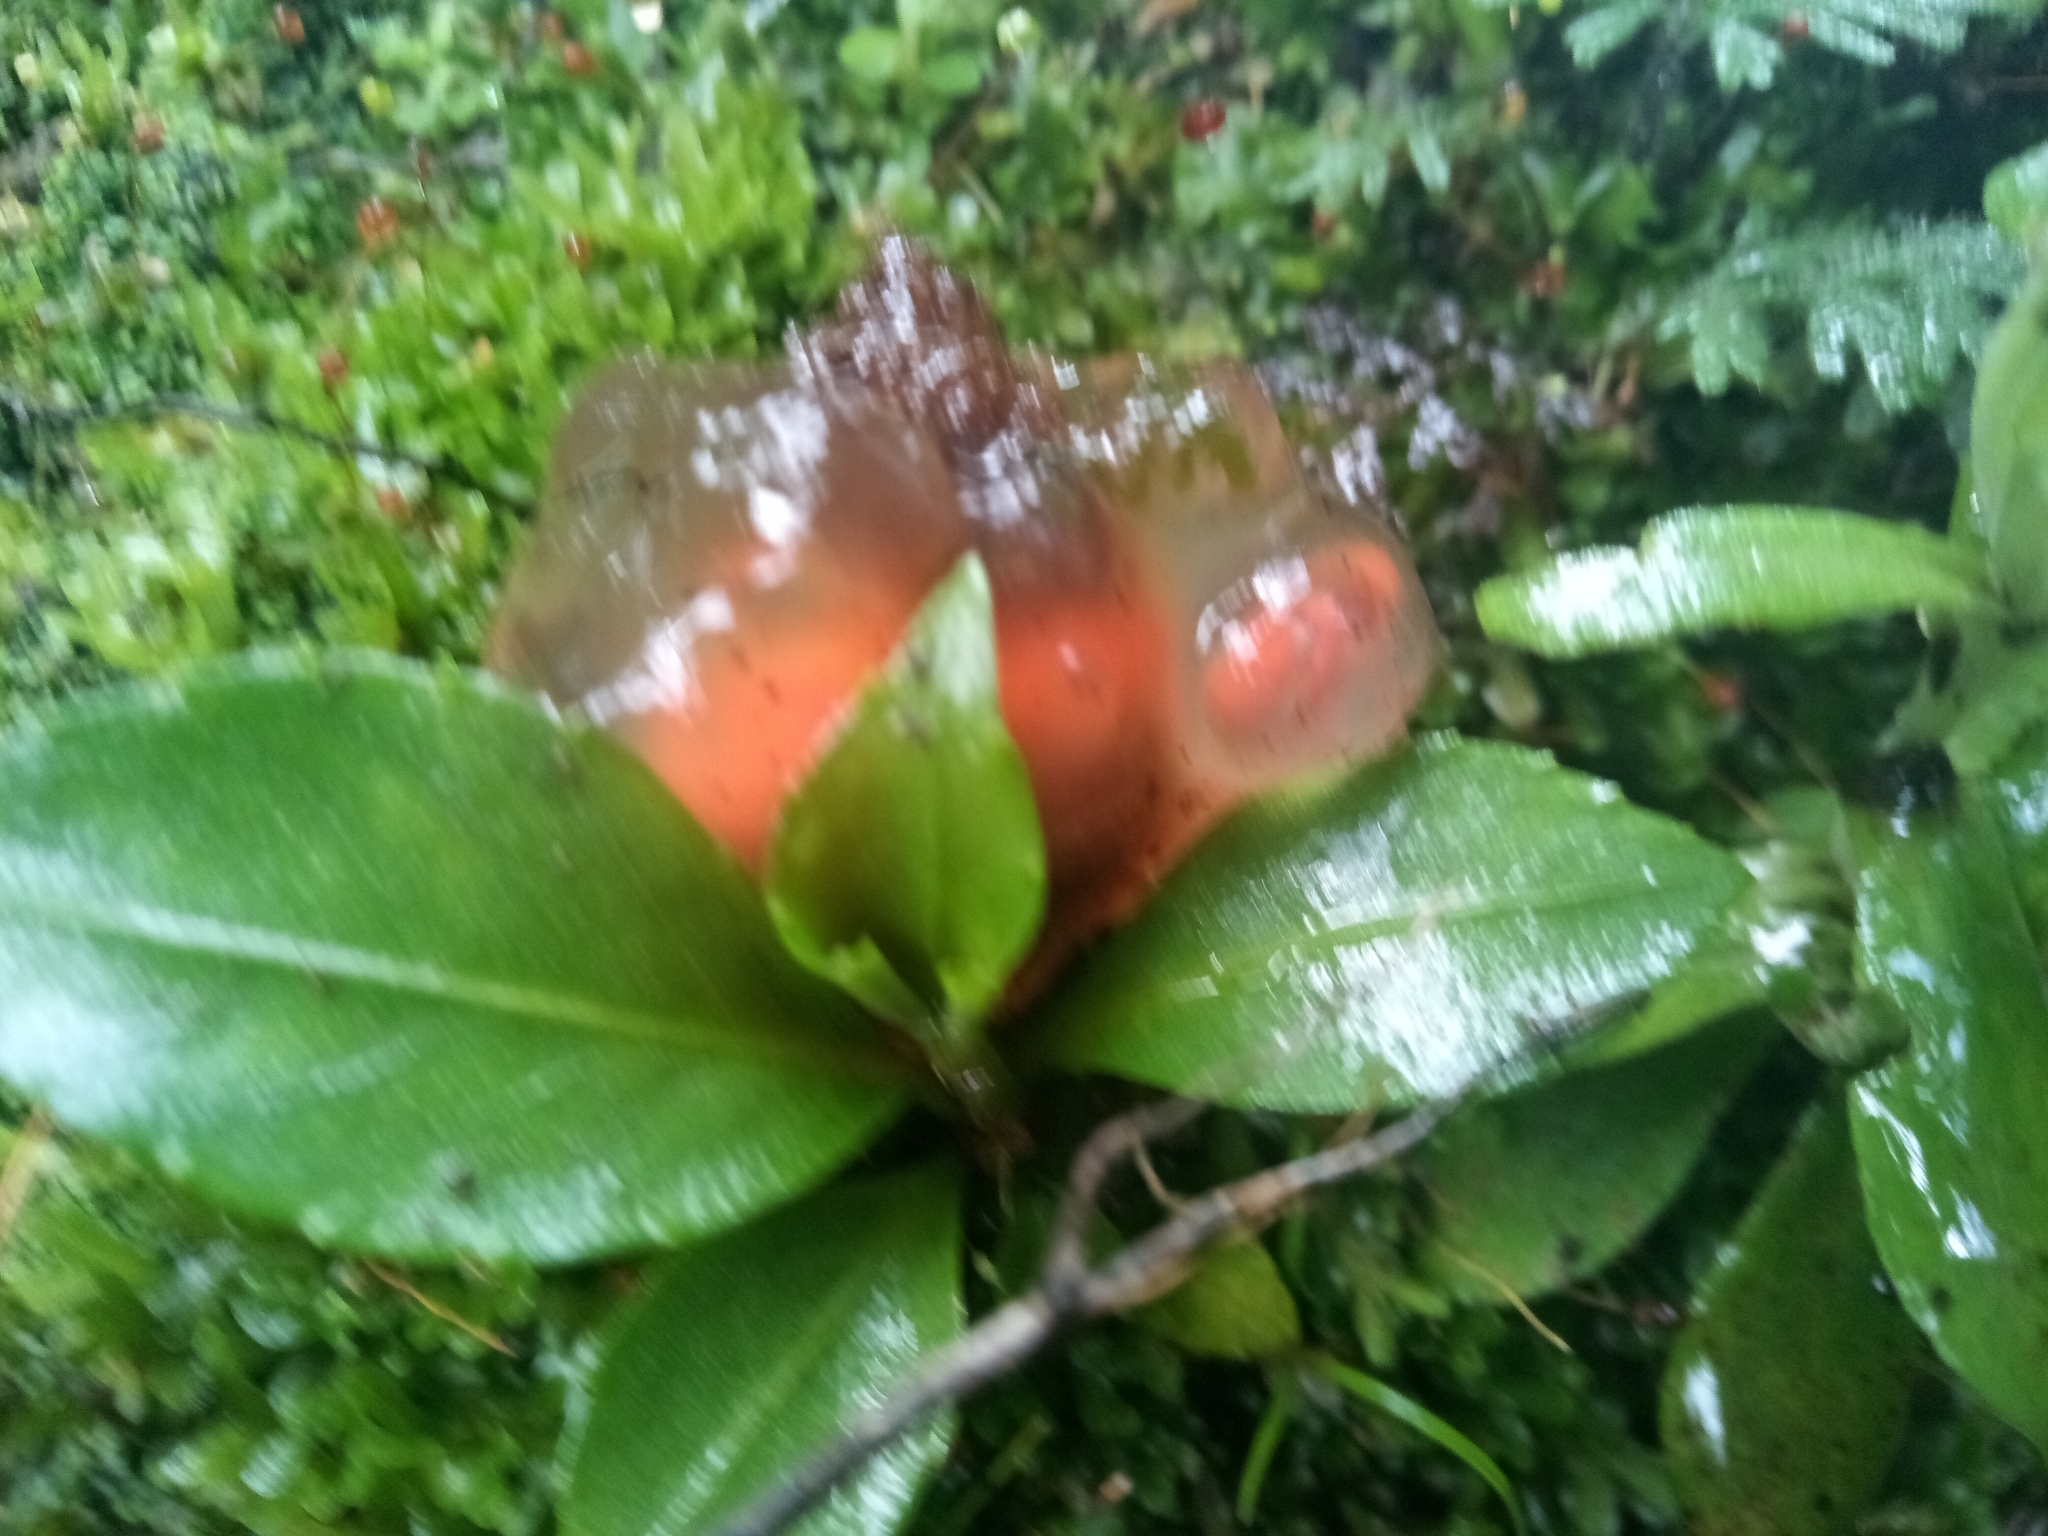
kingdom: Fungi
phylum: Basidiomycota
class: Agaricomycetes
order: Boletales
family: Calostomataceae
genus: Calostoma
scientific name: Calostoma cinnabarinum
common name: Stalked puffball-in-aspic
